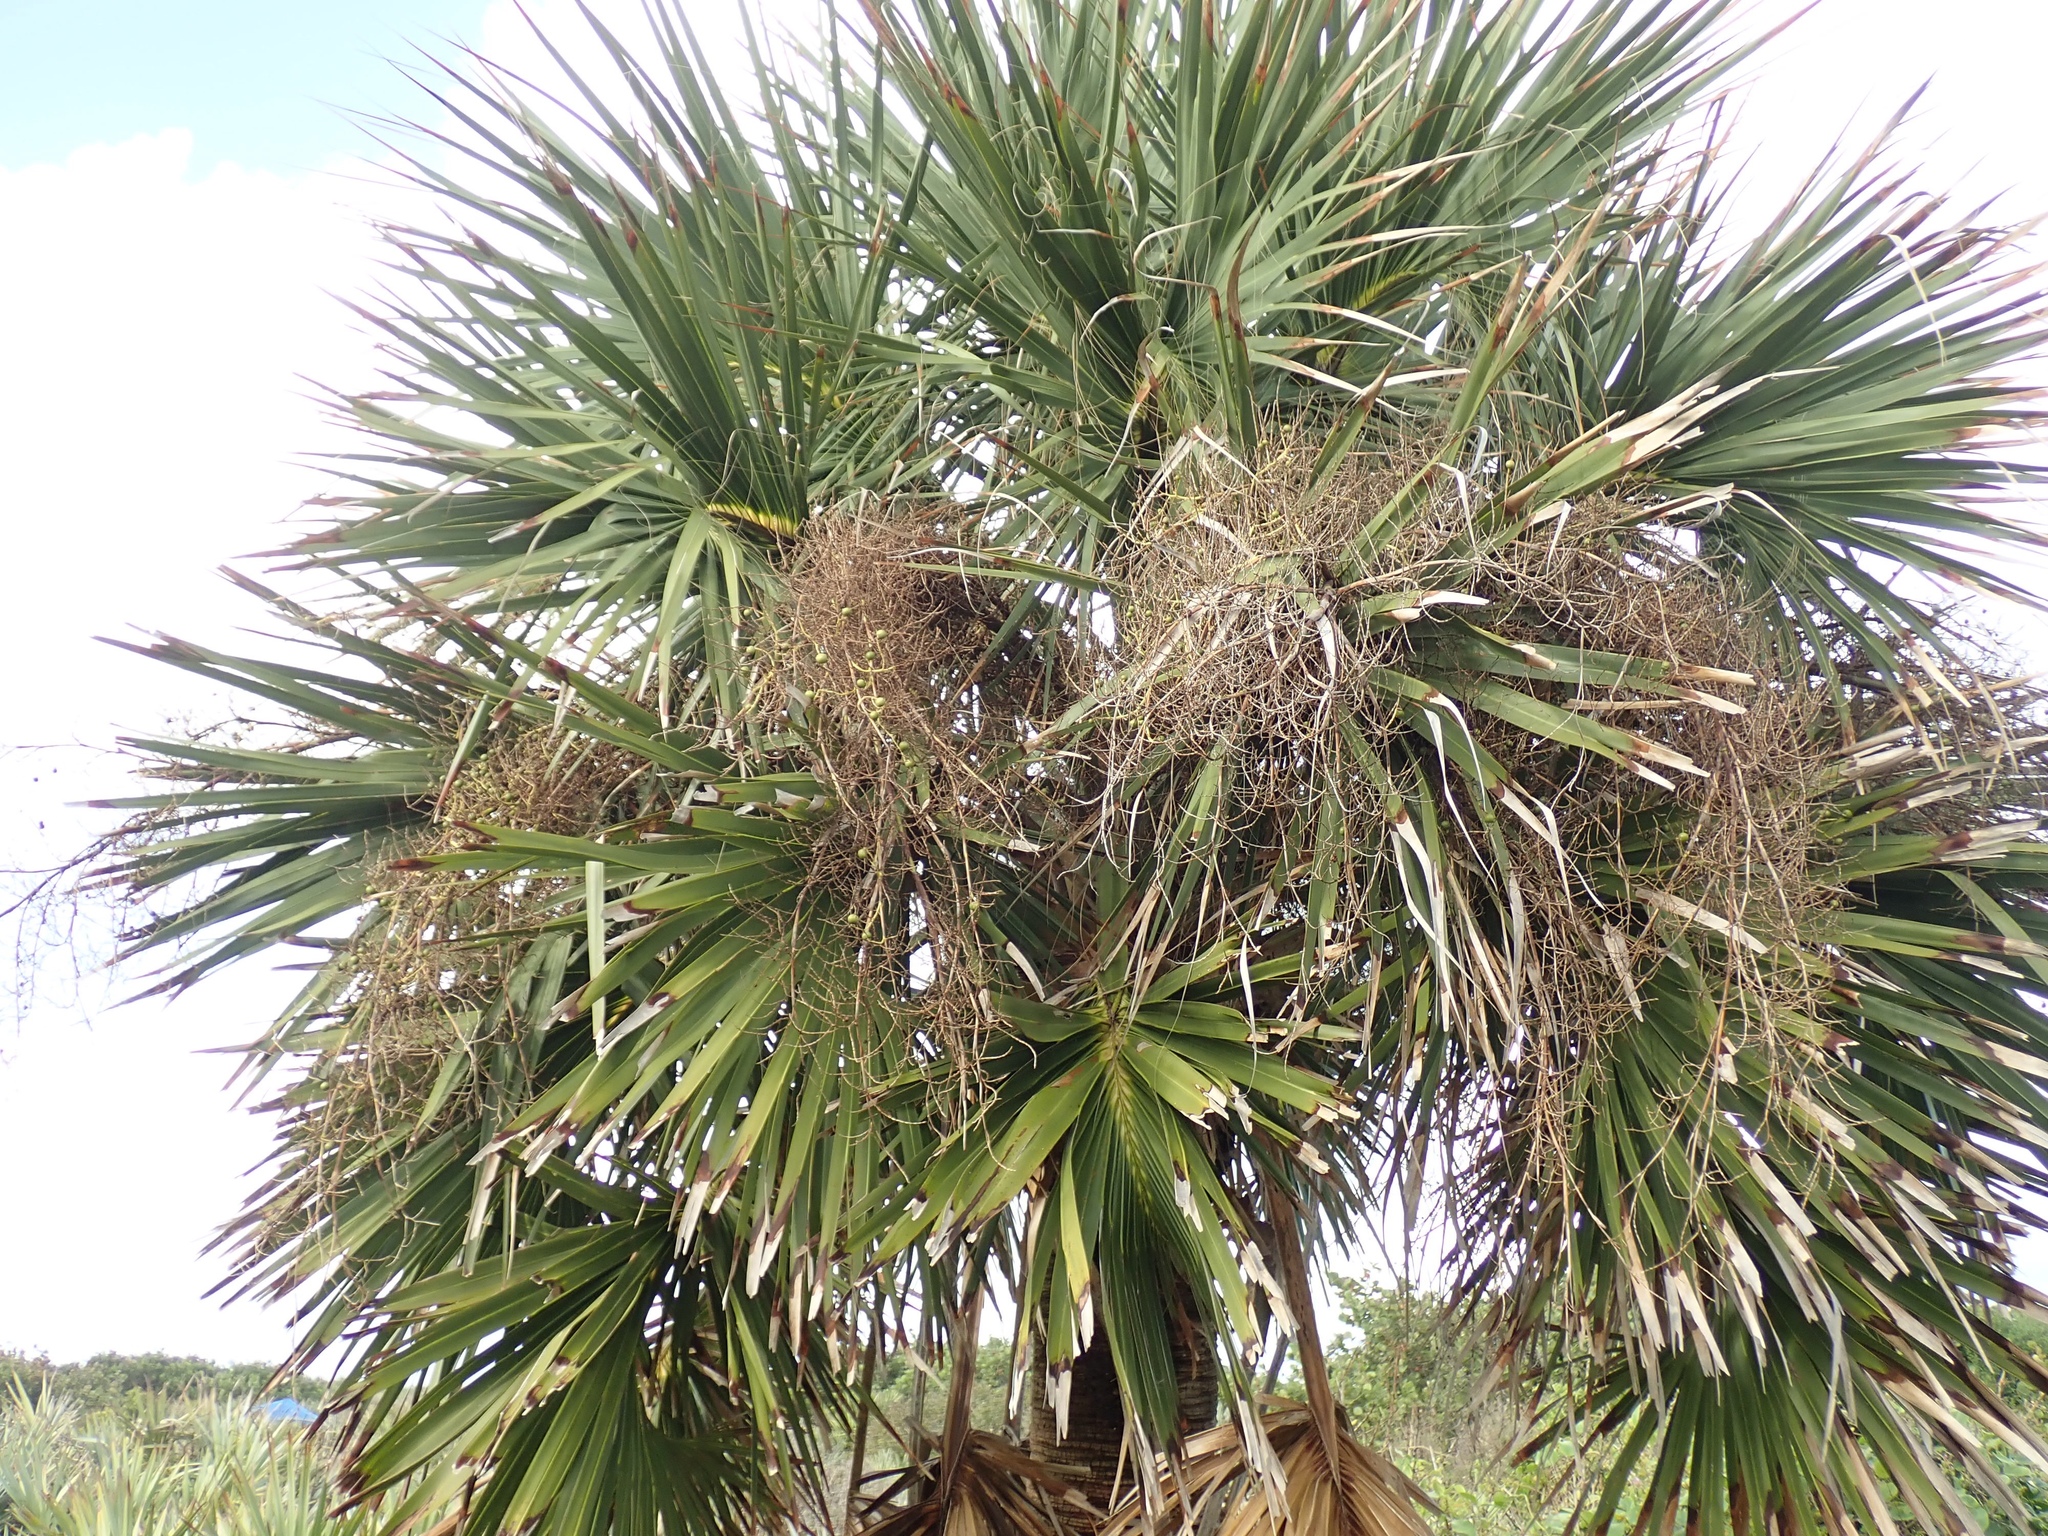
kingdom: Plantae
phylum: Tracheophyta
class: Liliopsida
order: Arecales
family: Arecaceae
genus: Sabal
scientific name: Sabal palmetto
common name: Blue palmetto
